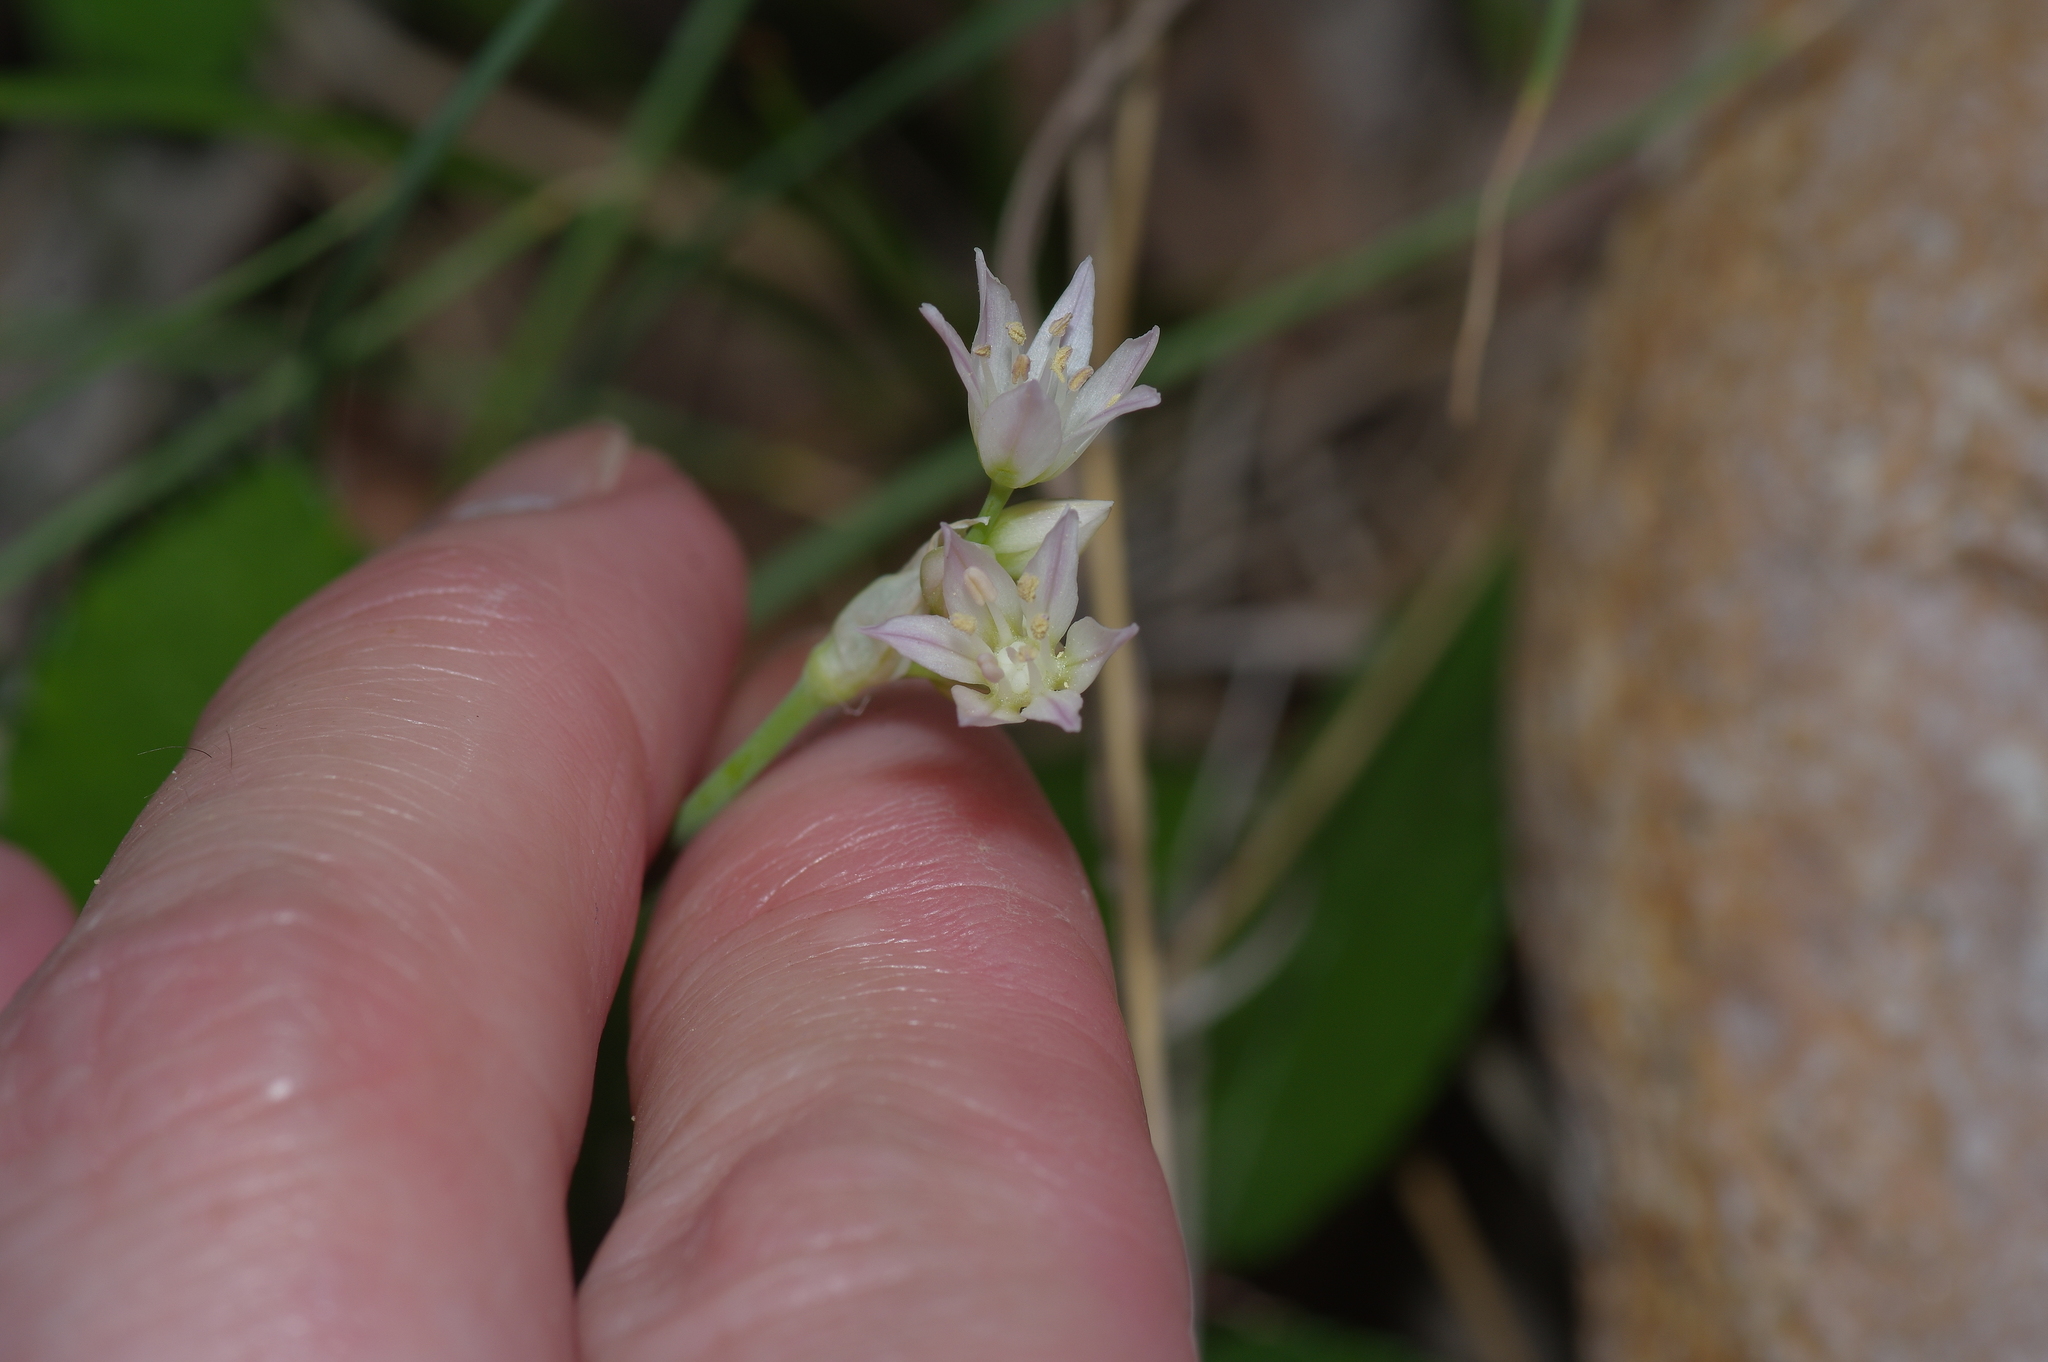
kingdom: Plantae
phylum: Tracheophyta
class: Liliopsida
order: Asparagales
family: Amaryllidaceae
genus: Allium
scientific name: Allium drummondii
